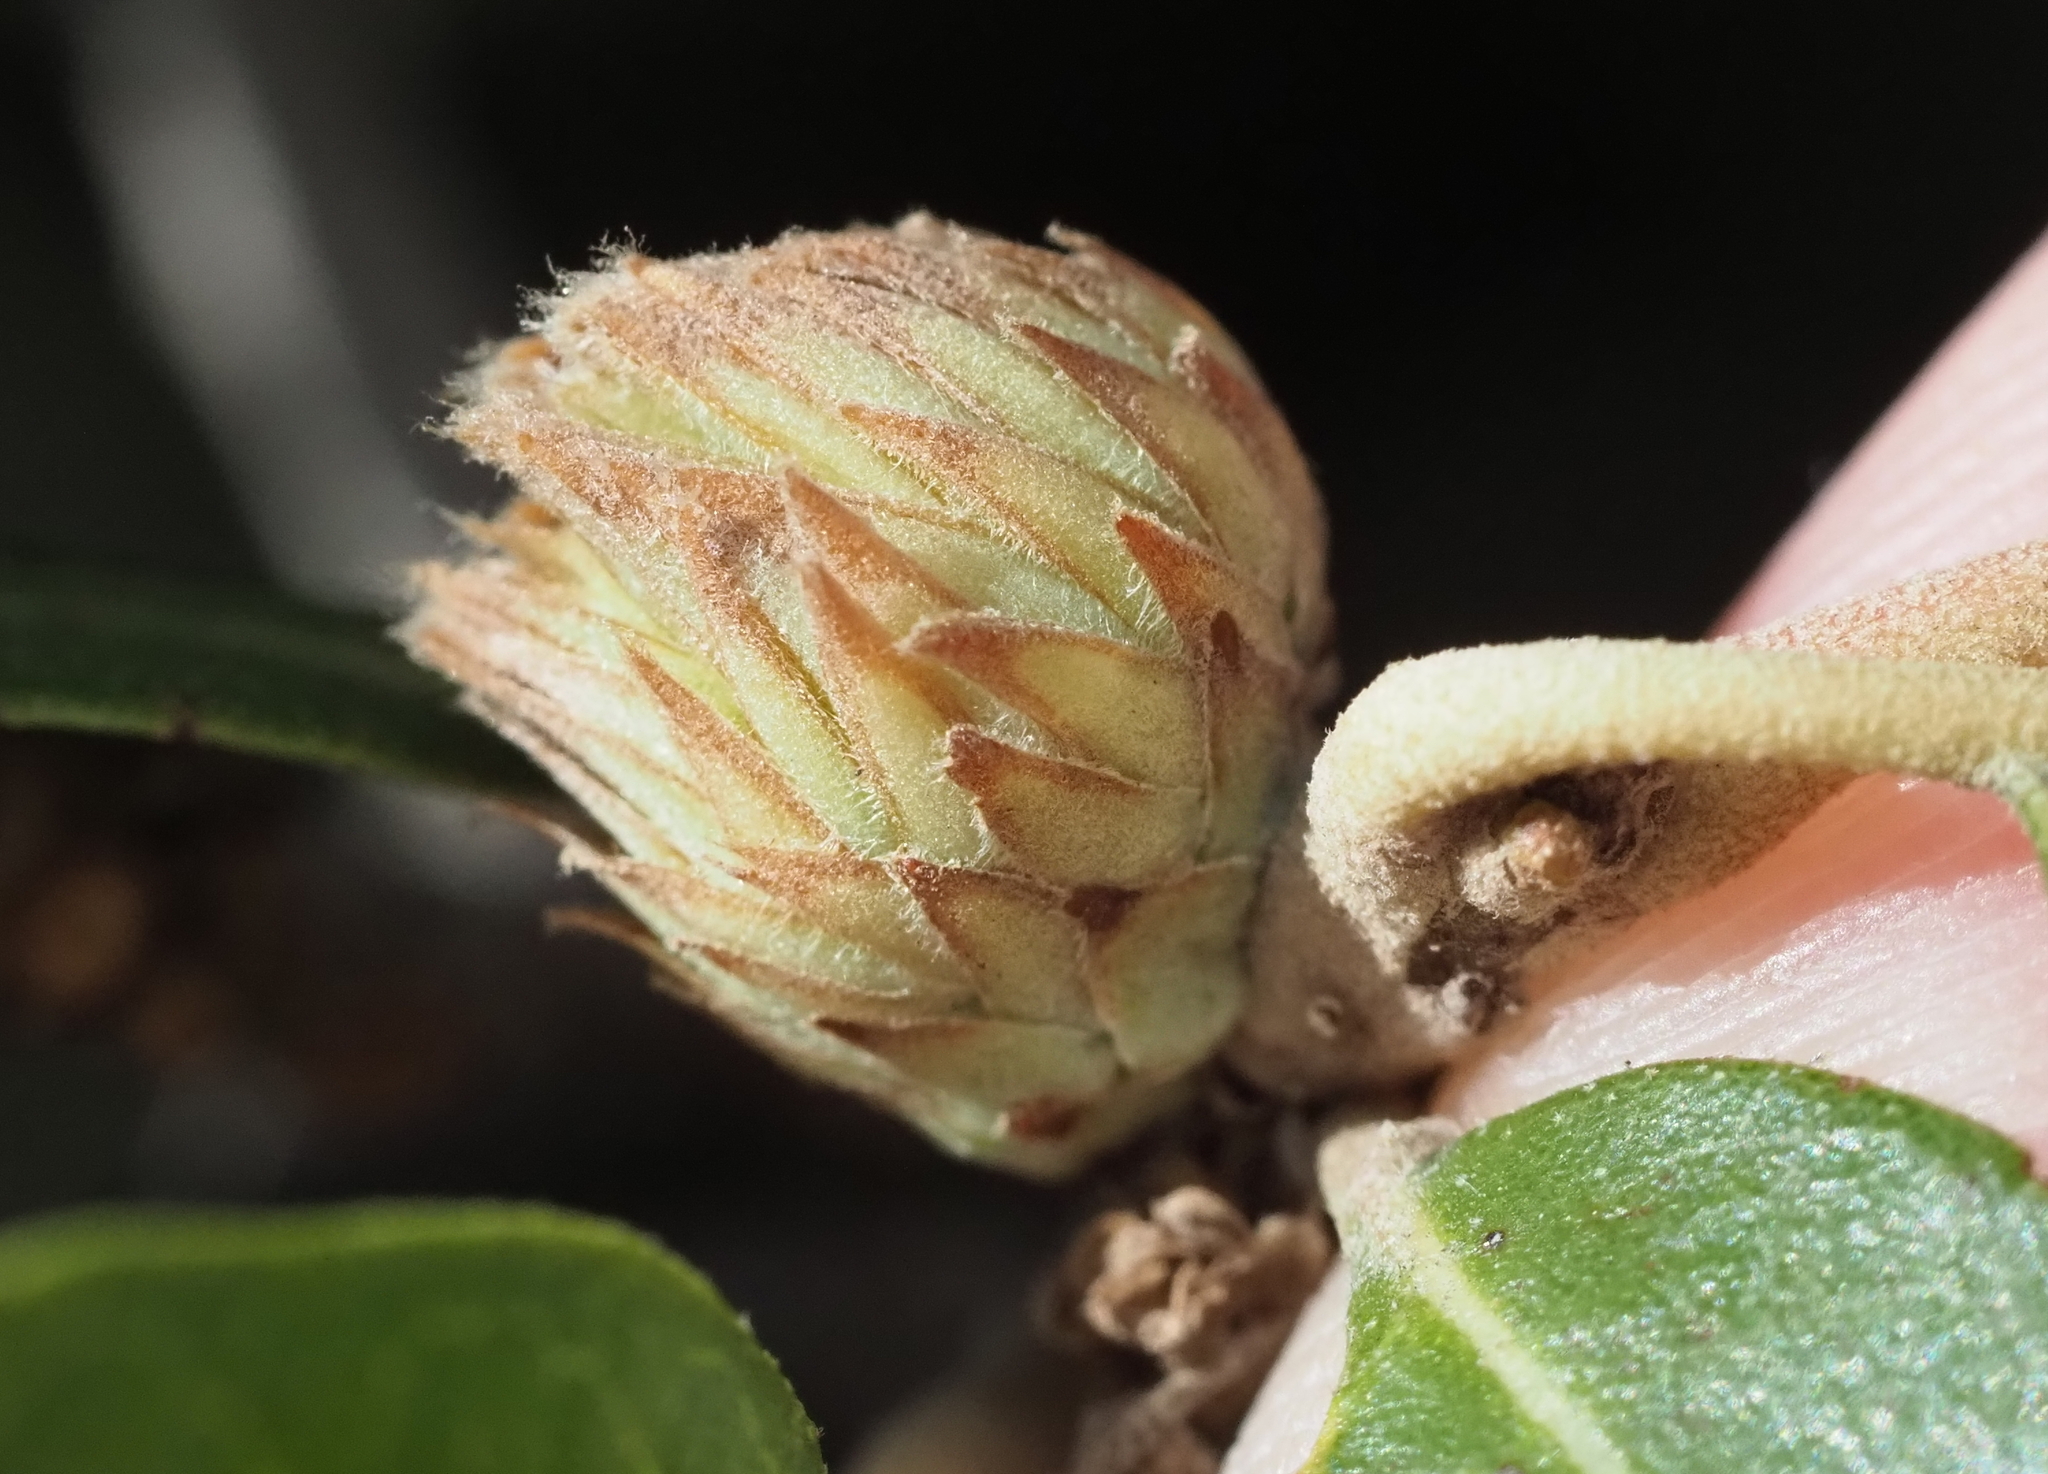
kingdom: Animalia
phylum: Arthropoda
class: Insecta
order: Hymenoptera
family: Cynipidae
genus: Andricus
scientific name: Andricus quercusfoliatus
